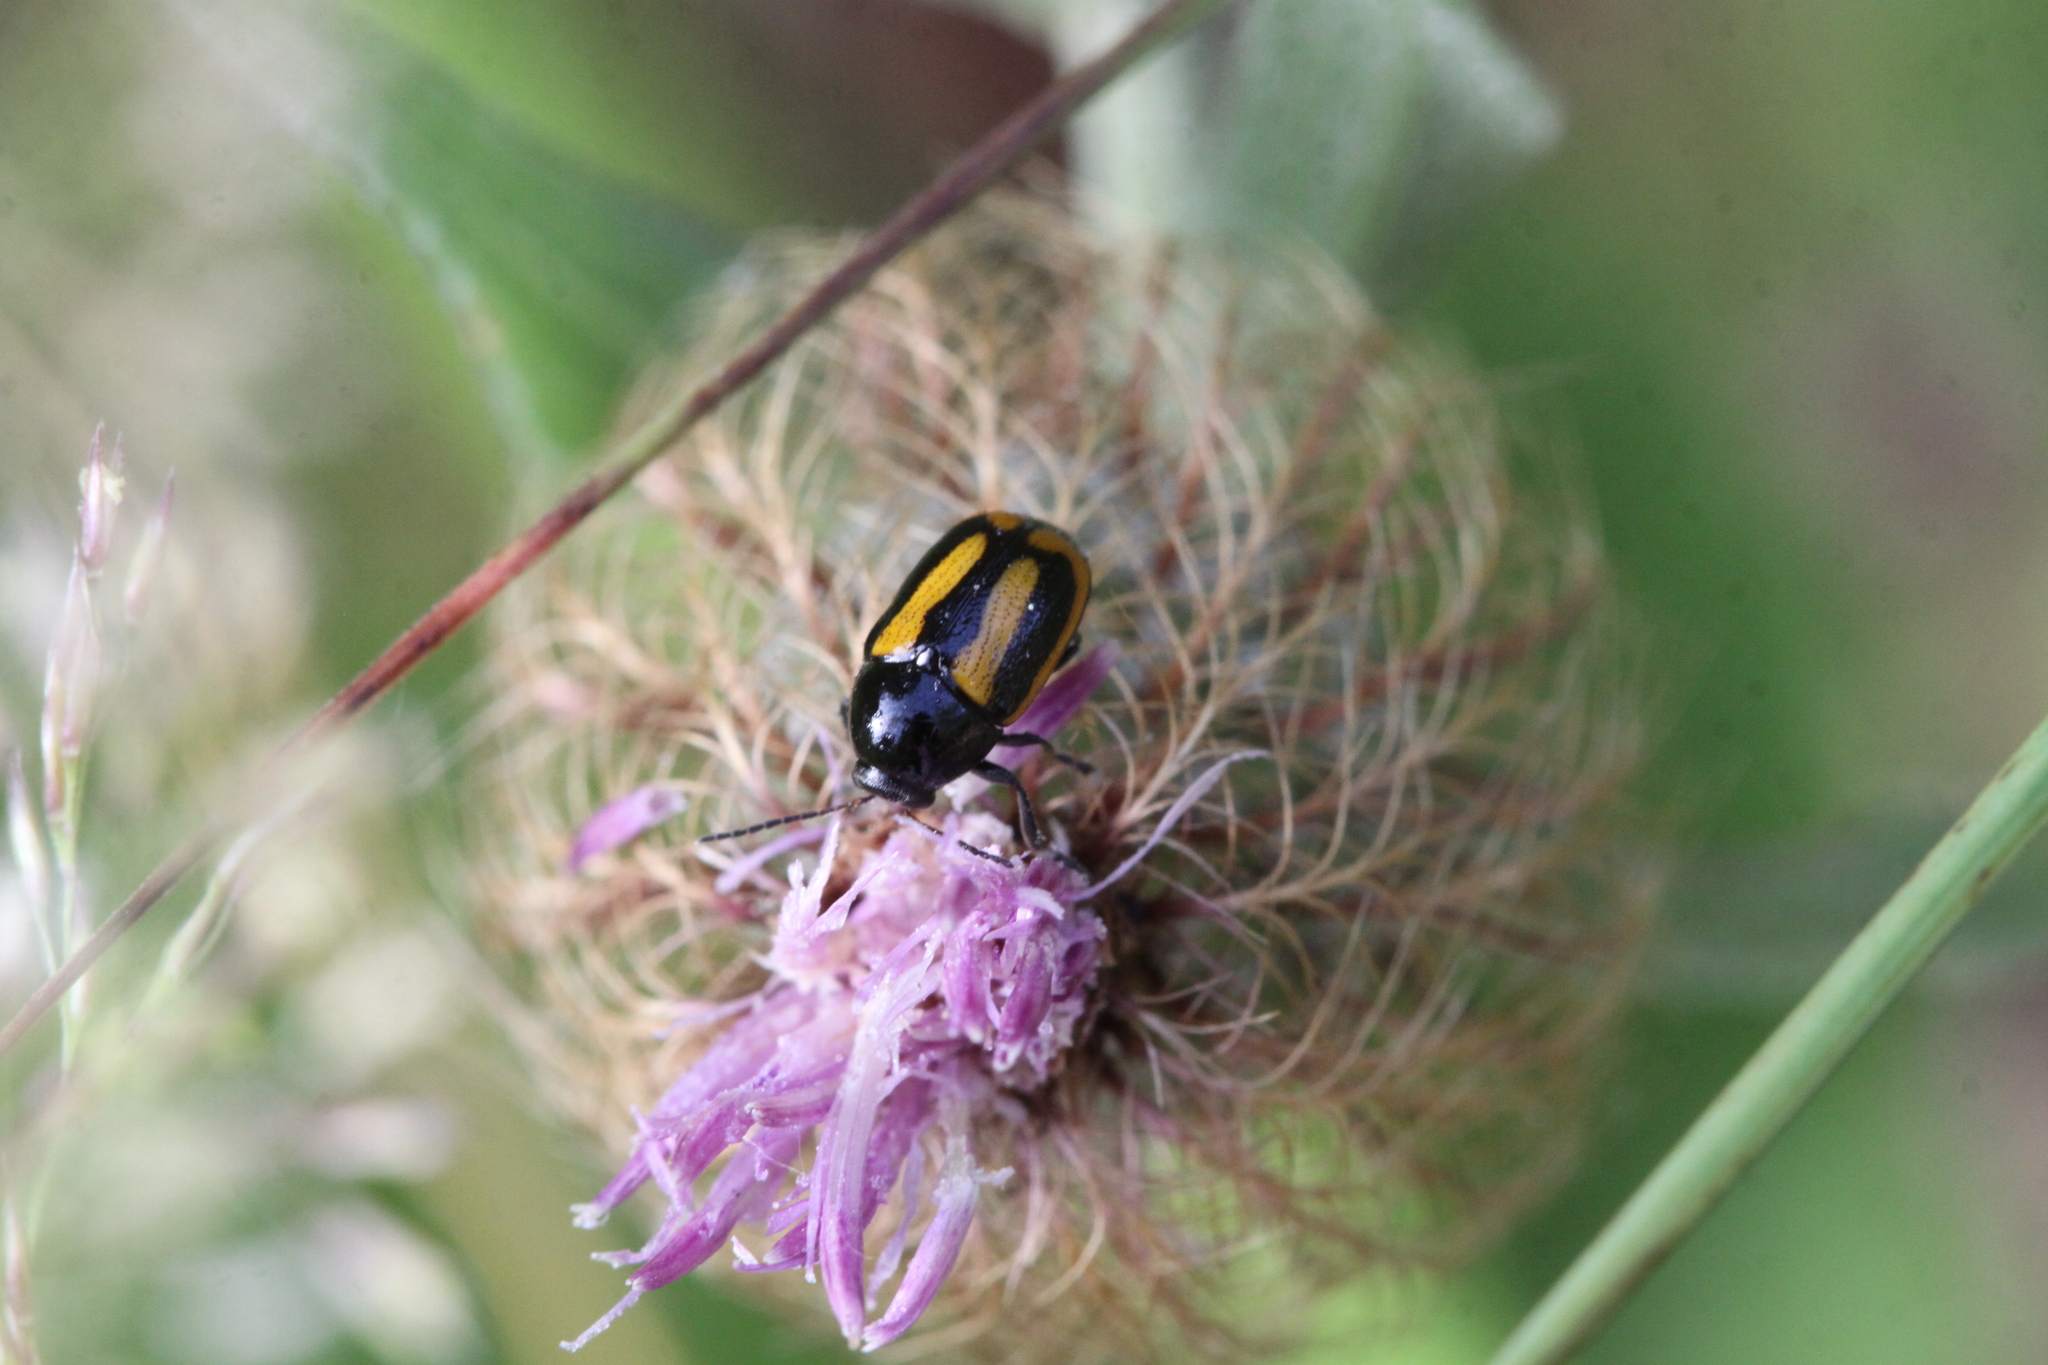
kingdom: Animalia
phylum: Arthropoda
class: Insecta
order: Coleoptera
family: Chrysomelidae
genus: Acalymma
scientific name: Acalymma vittatum
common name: Striped cucumber beetle
